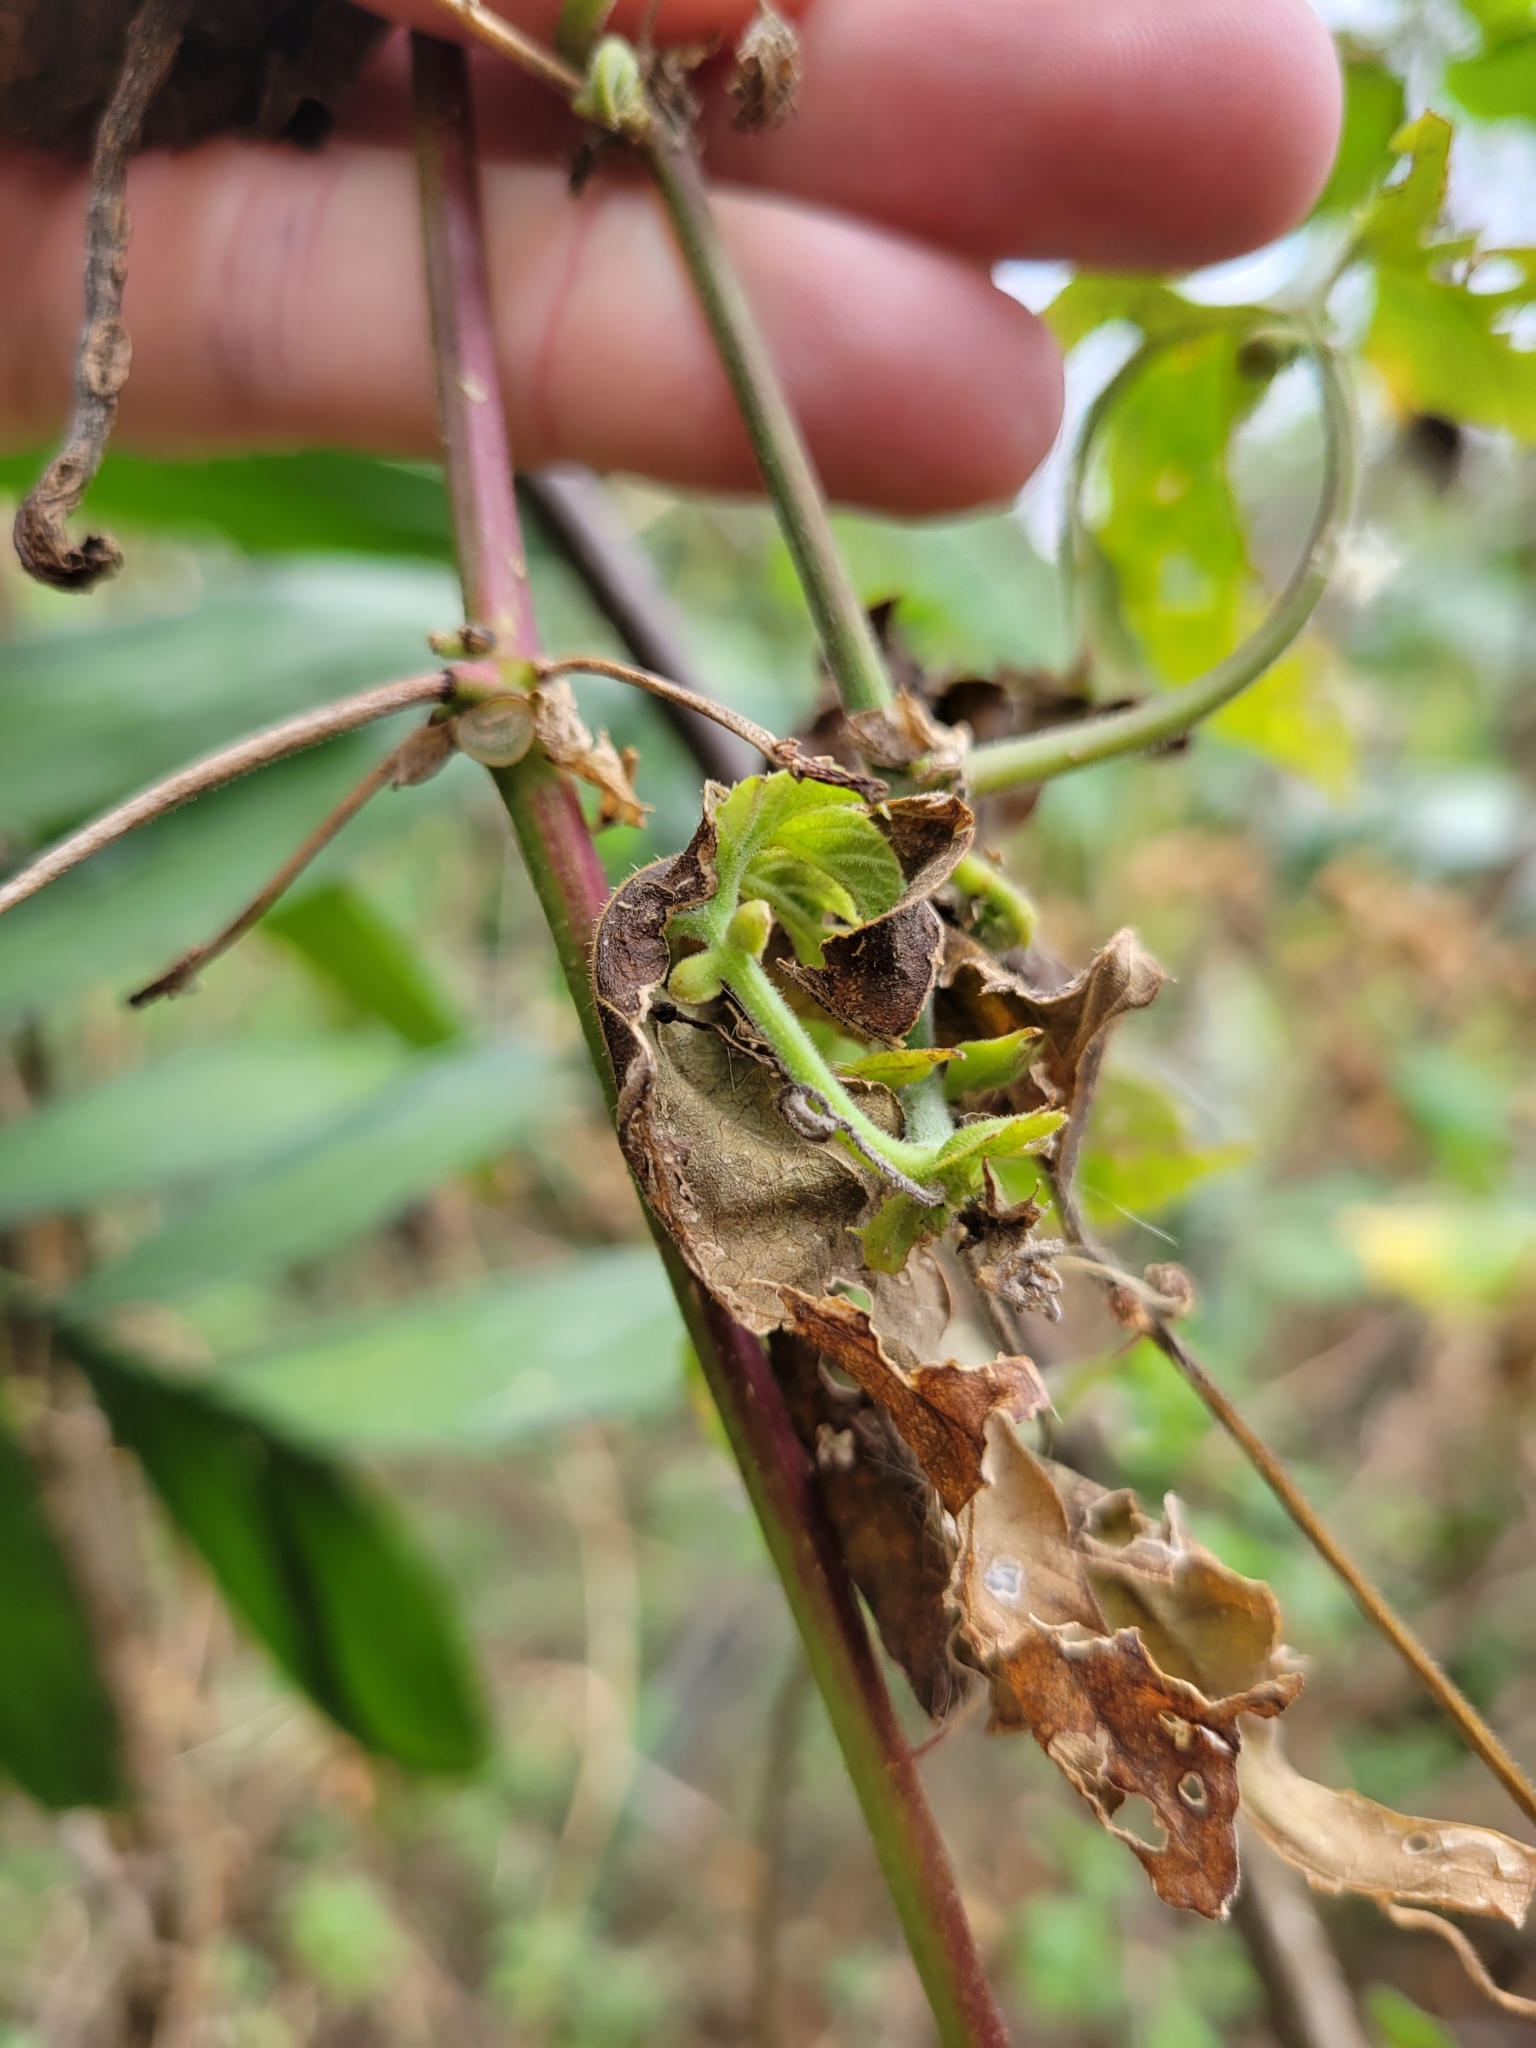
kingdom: Plantae
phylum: Tracheophyta
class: Magnoliopsida
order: Malpighiales
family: Passifloraceae
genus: Passiflora
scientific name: Passiflora adenopoda
